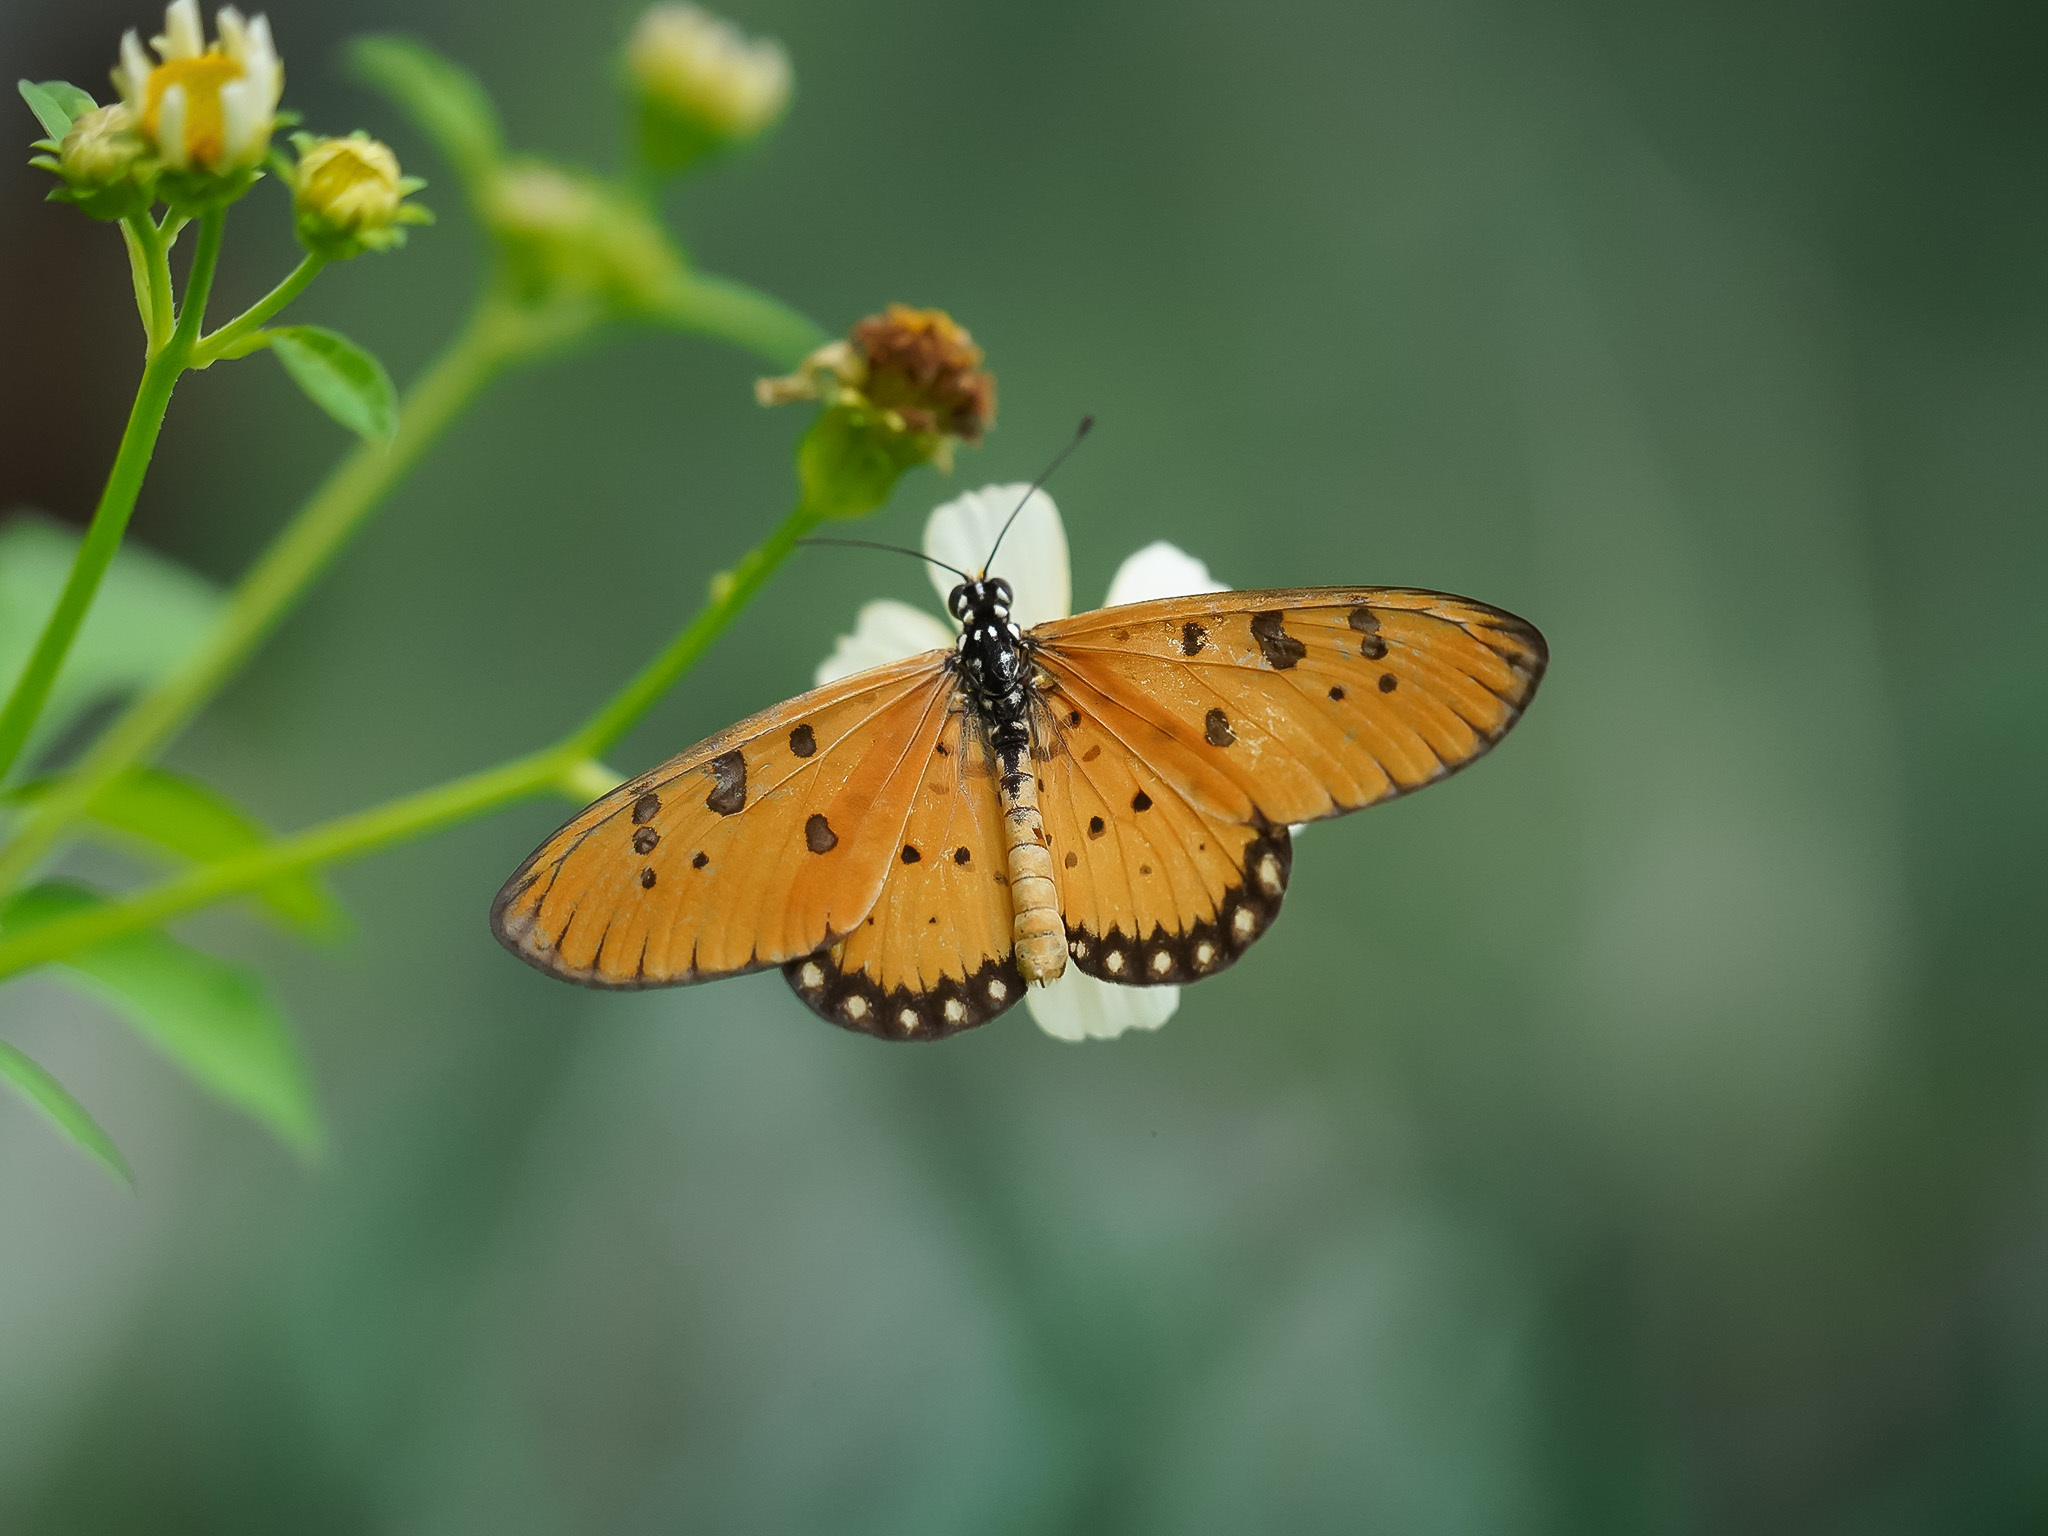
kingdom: Animalia
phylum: Arthropoda
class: Insecta
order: Lepidoptera
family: Nymphalidae
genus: Acraea
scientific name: Acraea terpsicore
